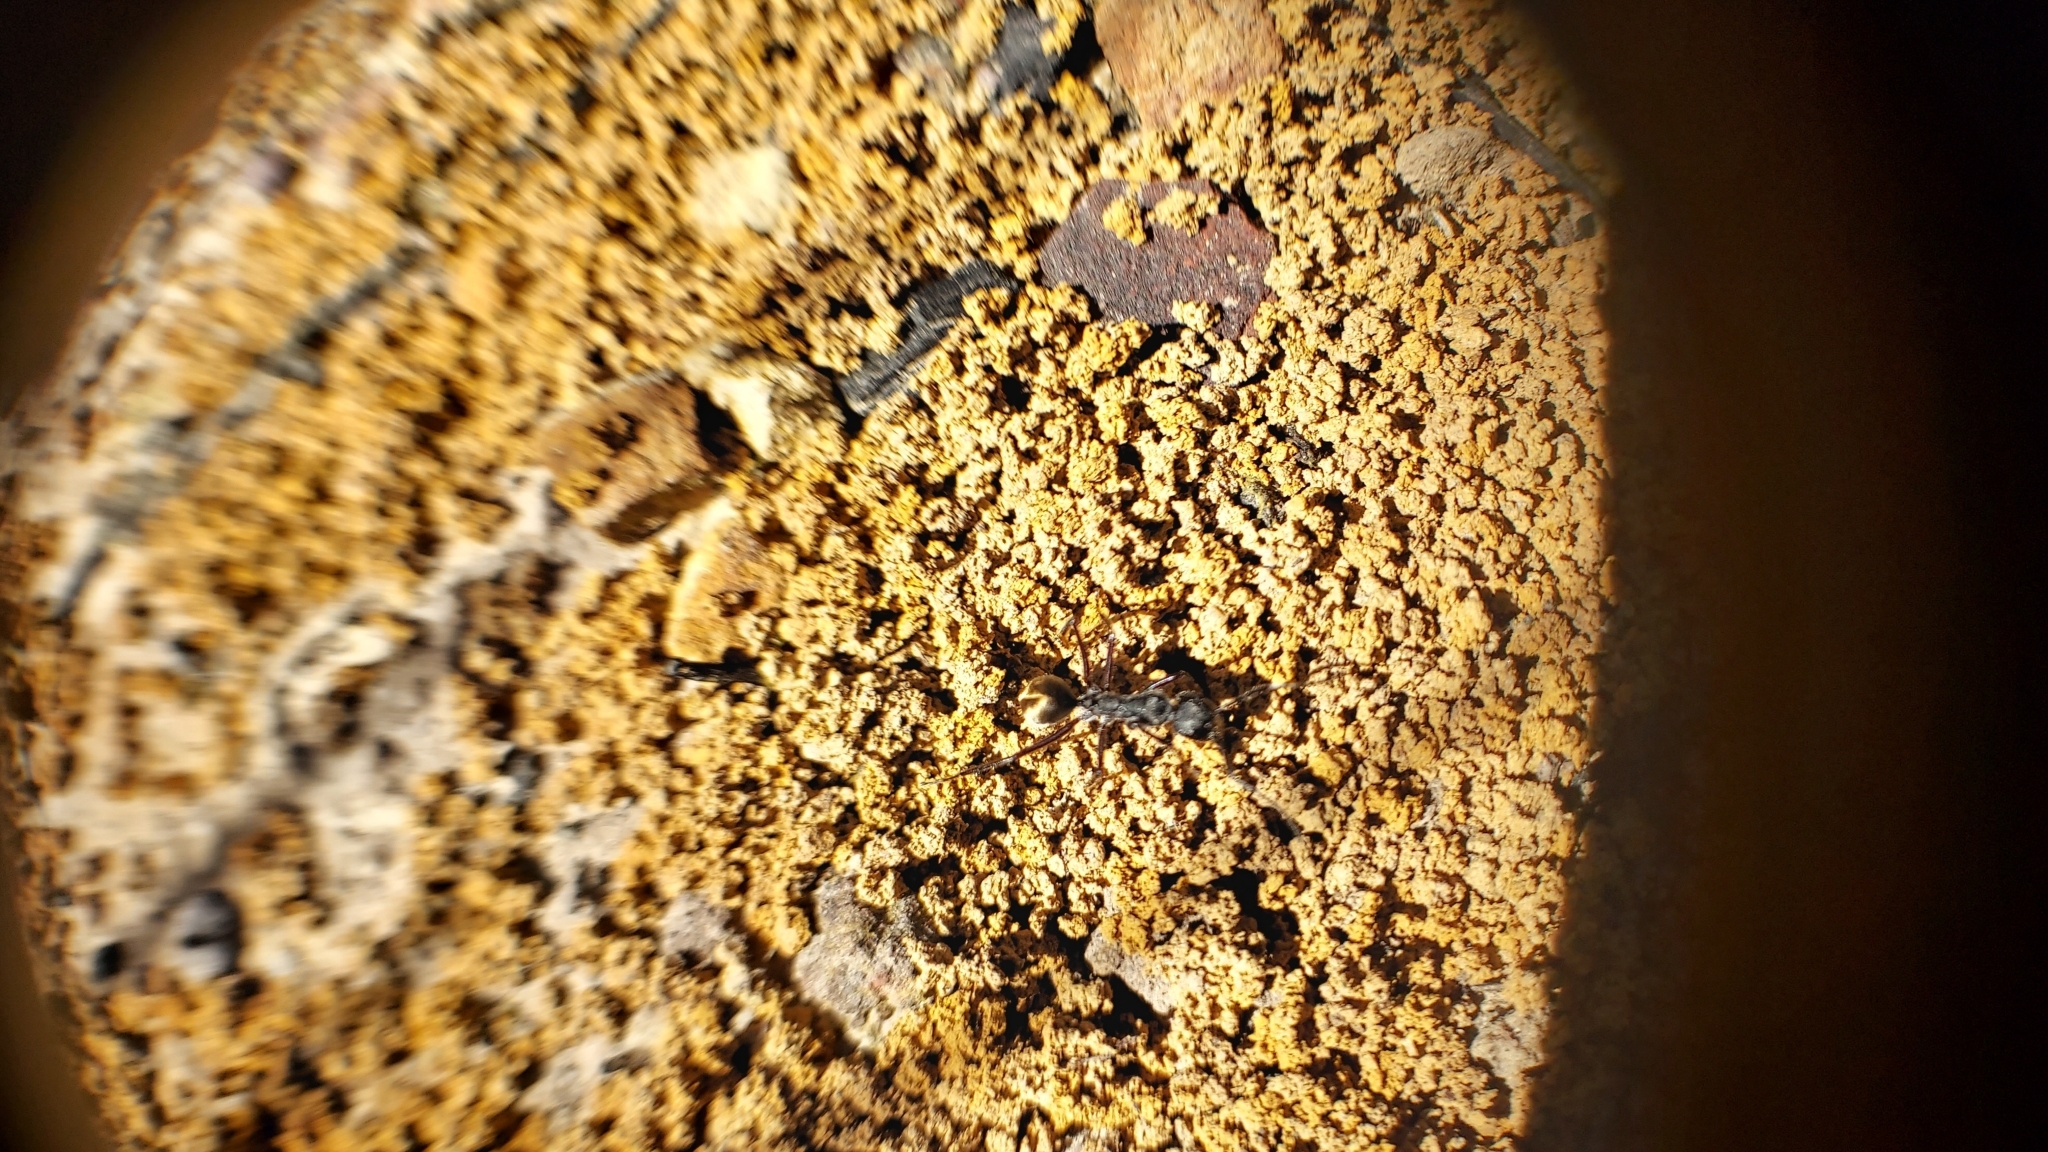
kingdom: Animalia
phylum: Arthropoda
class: Insecta
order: Hymenoptera
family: Formicidae
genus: Camponotus
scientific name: Camponotus suffusus
